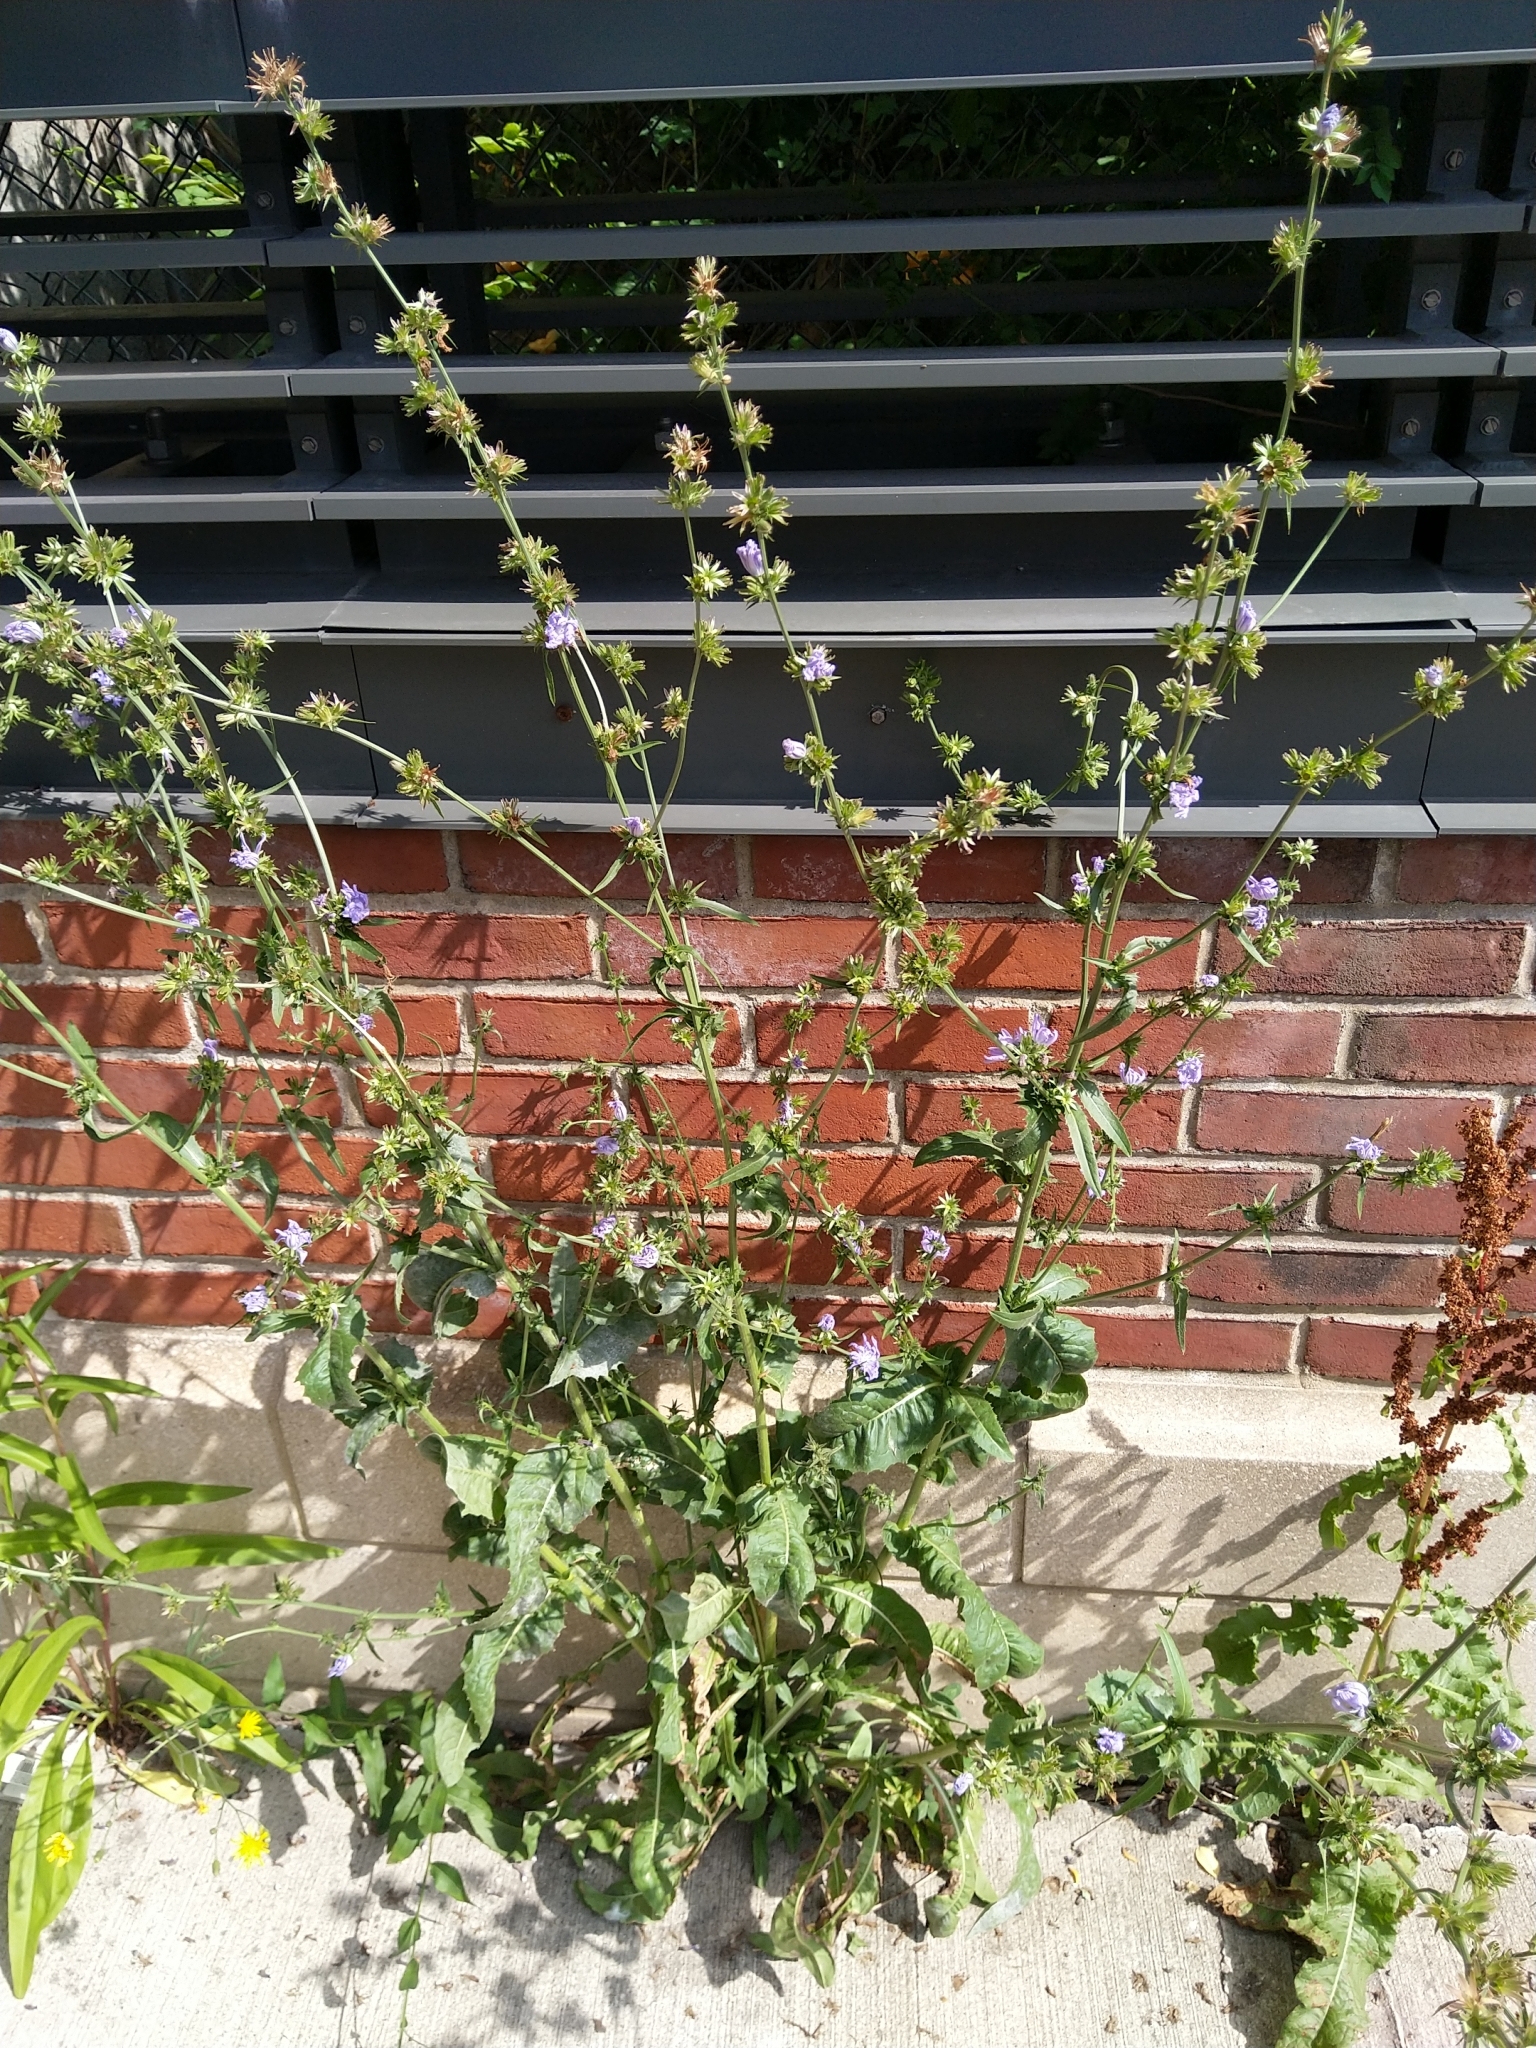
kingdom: Plantae
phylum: Tracheophyta
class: Magnoliopsida
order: Asterales
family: Asteraceae
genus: Cichorium
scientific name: Cichorium intybus
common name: Chicory
